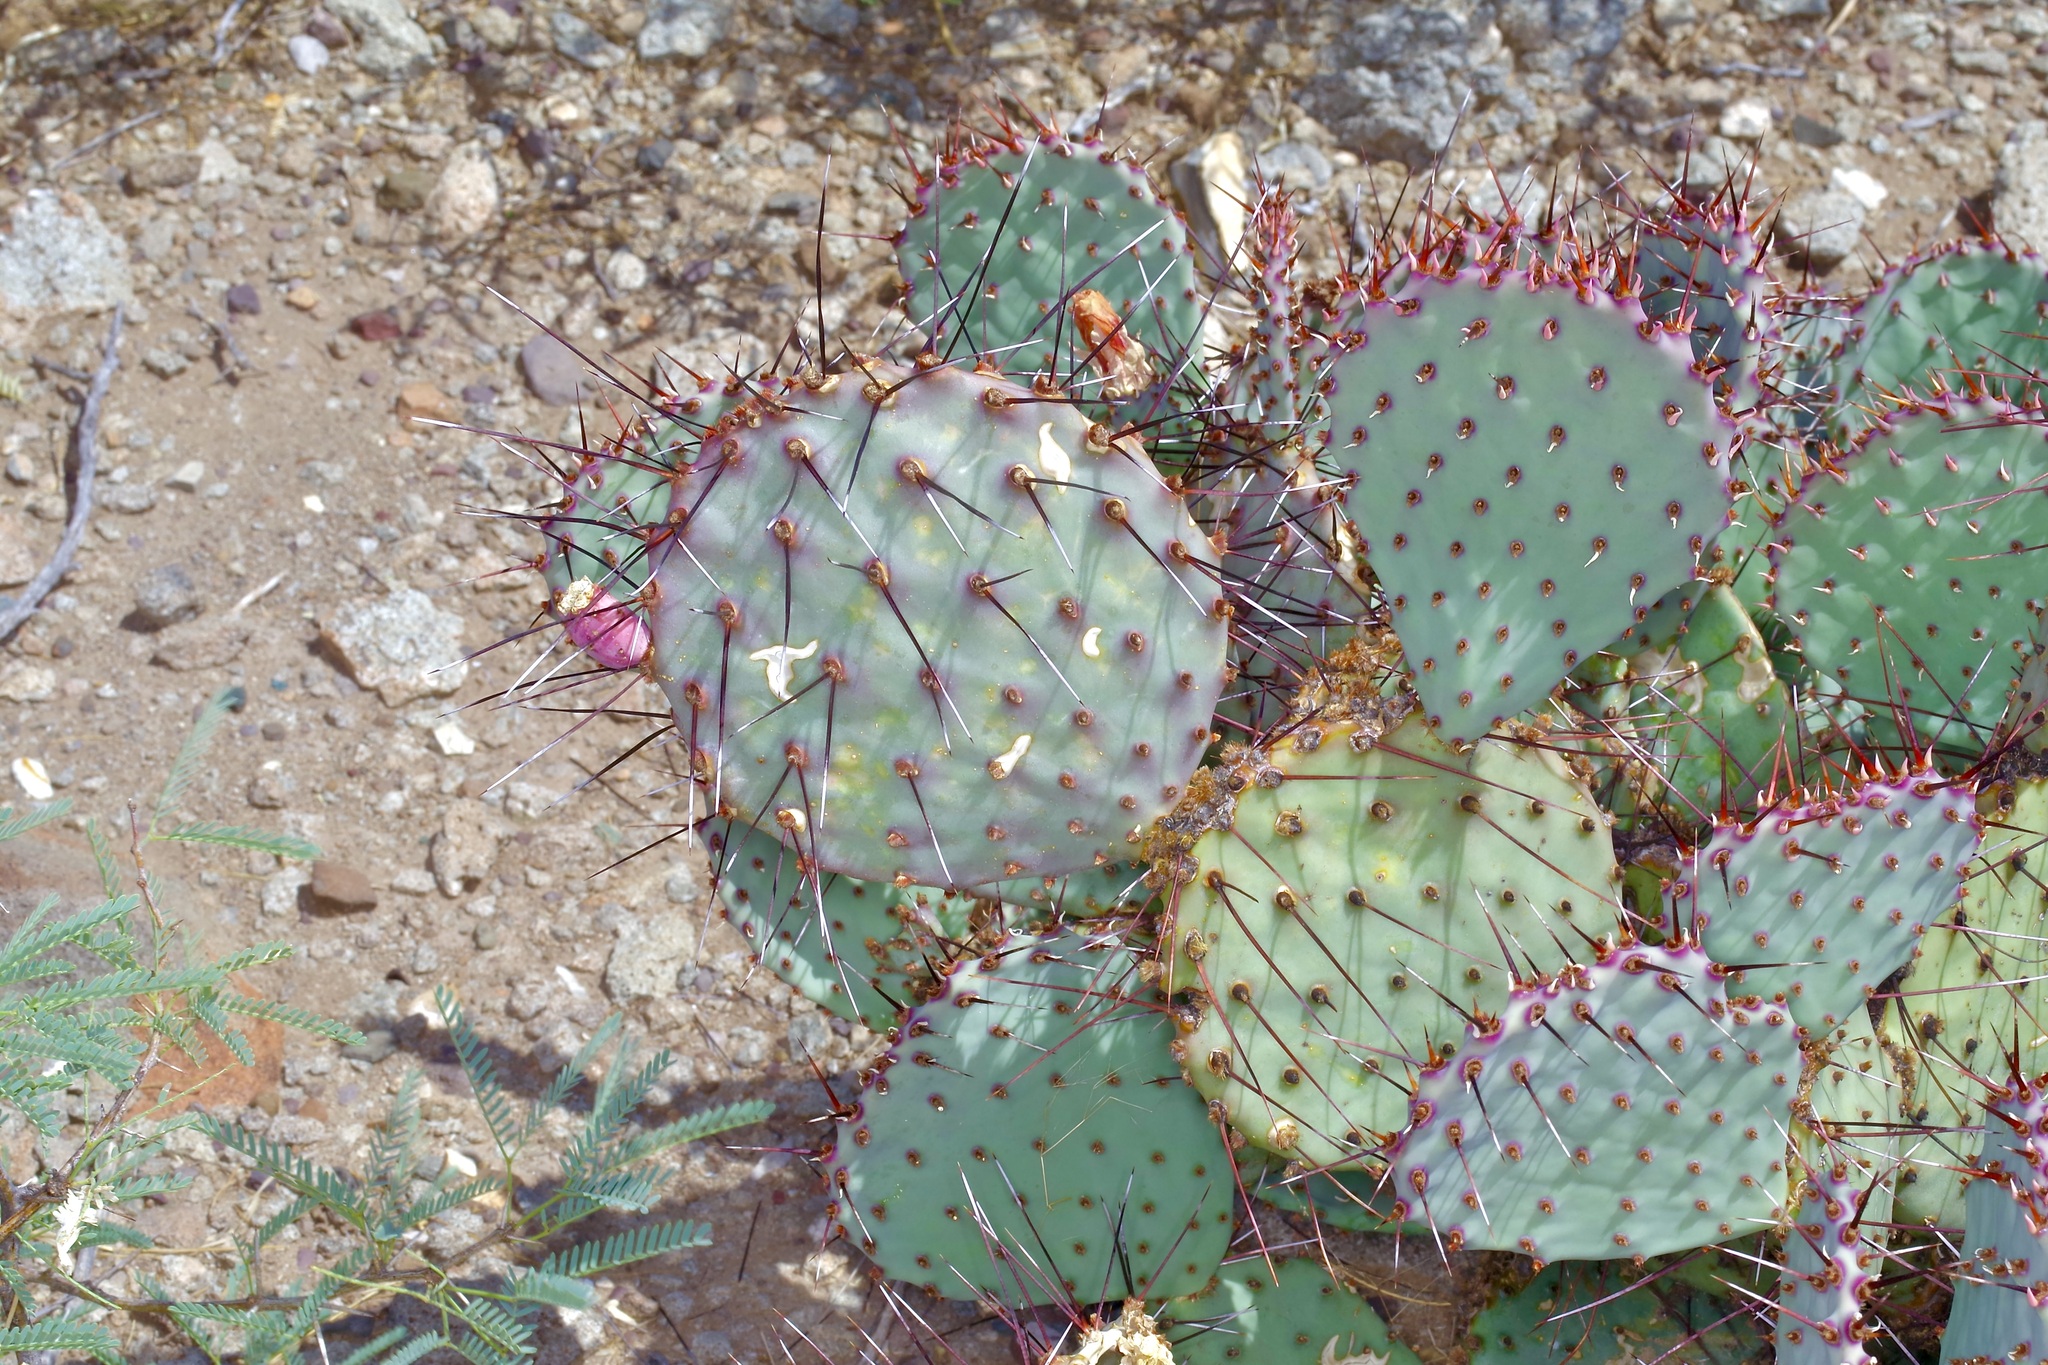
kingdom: Plantae
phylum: Tracheophyta
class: Magnoliopsida
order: Caryophyllales
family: Cactaceae
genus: Opuntia
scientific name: Opuntia phaeacantha
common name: New mexico prickly-pear
